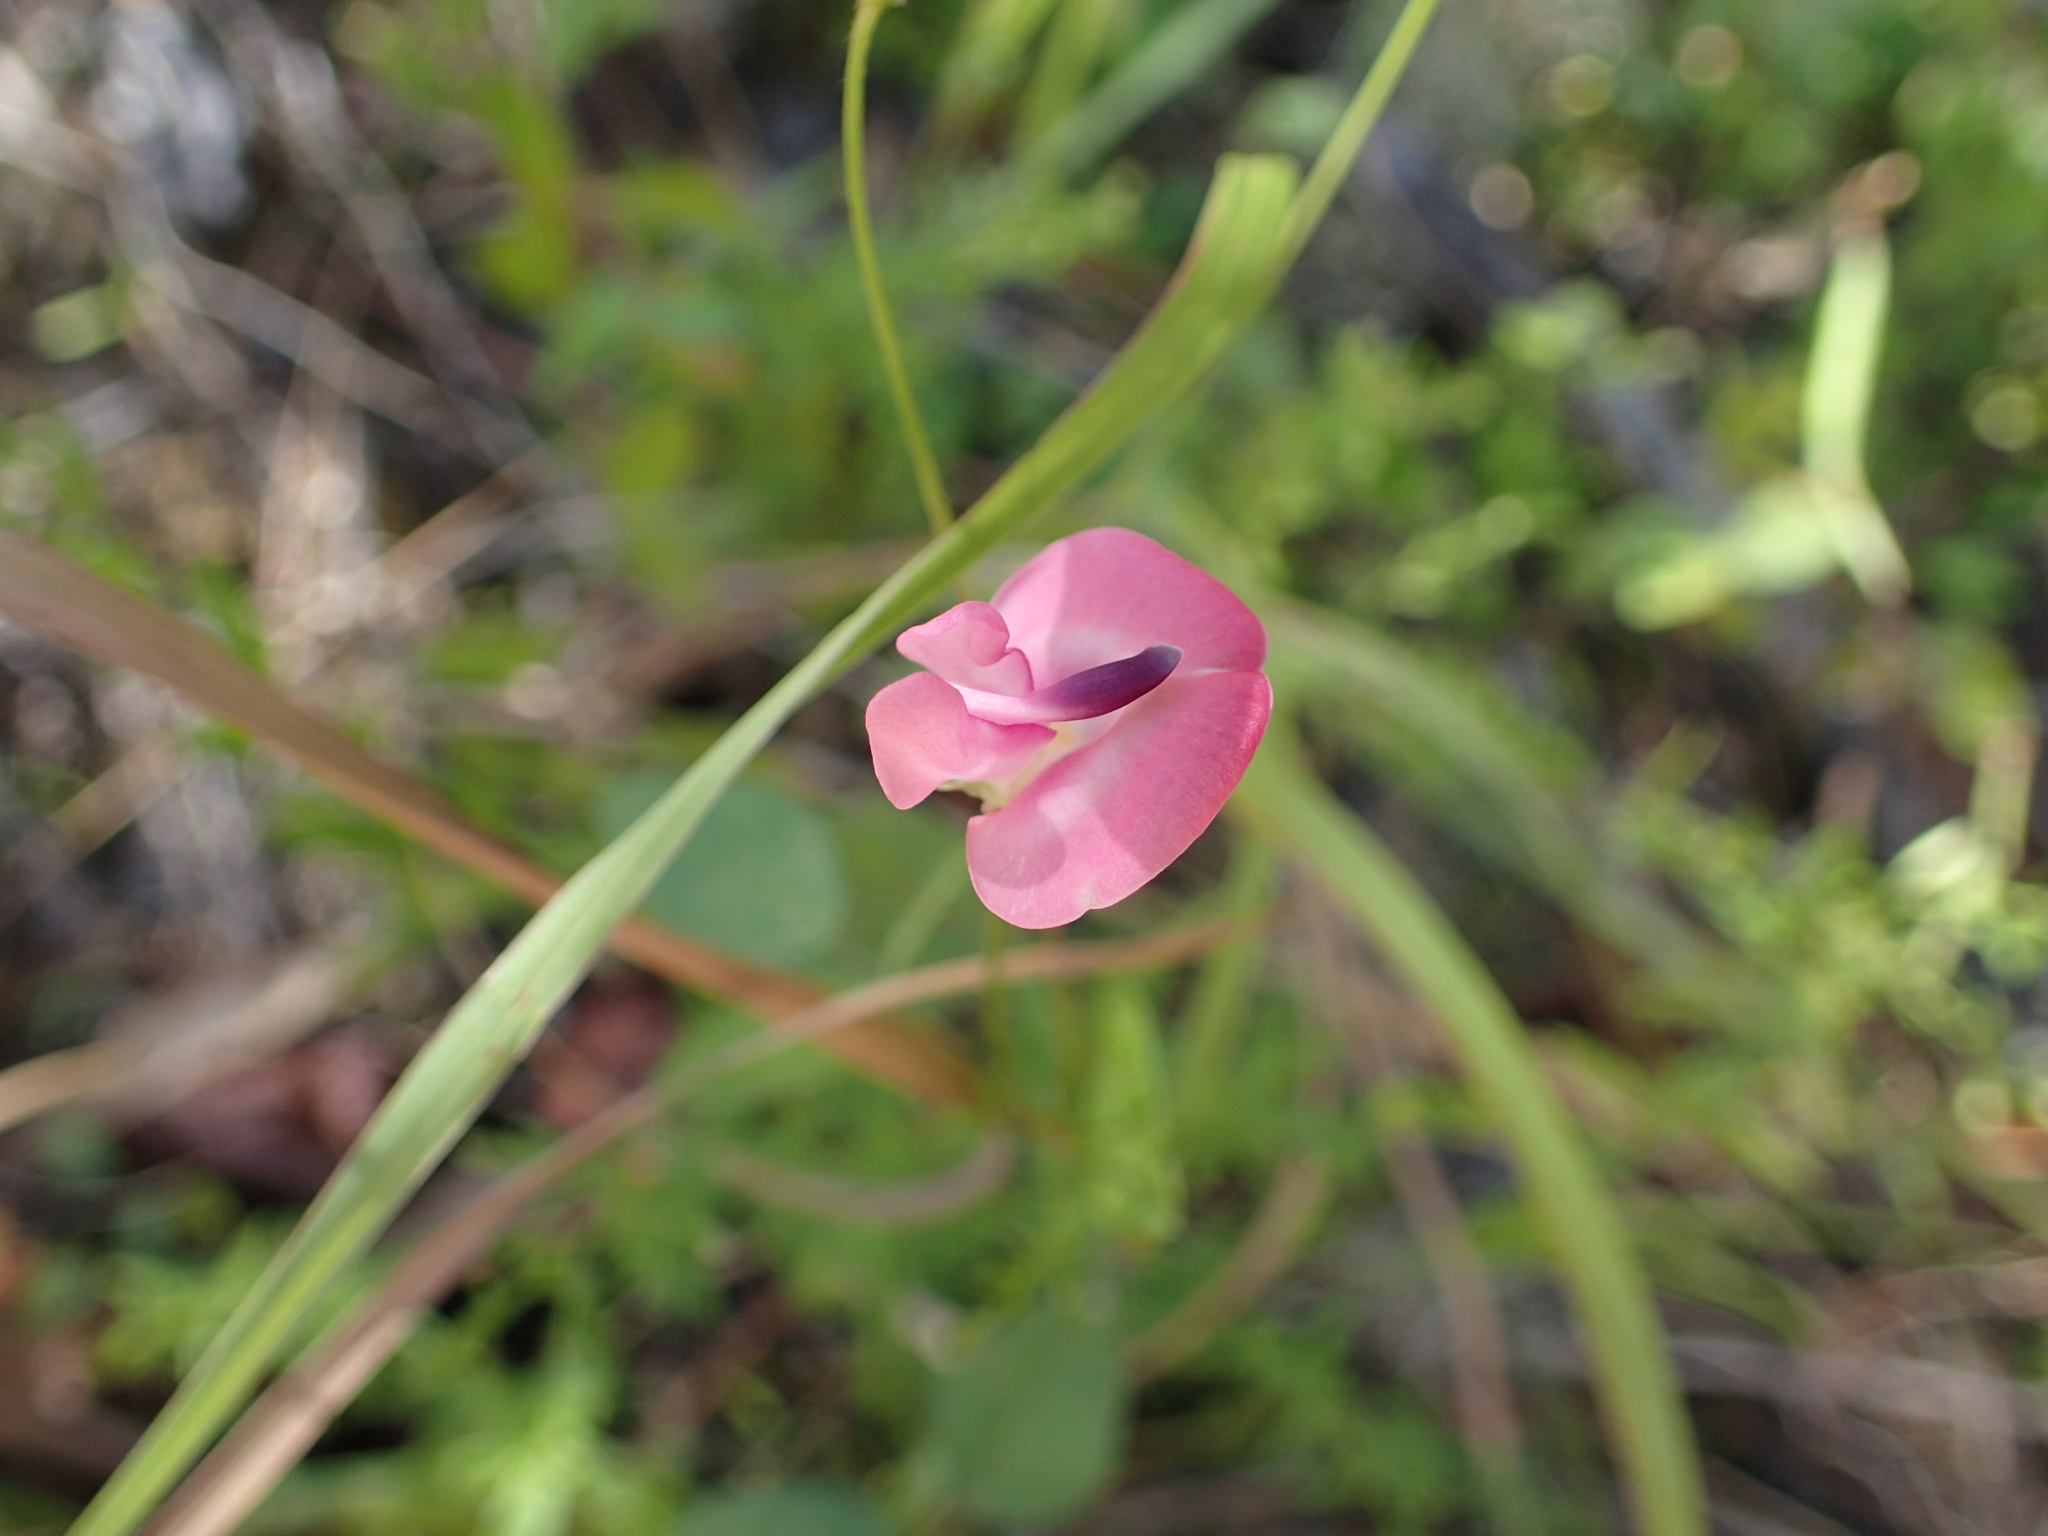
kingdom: Plantae
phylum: Tracheophyta
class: Magnoliopsida
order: Fabales
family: Fabaceae
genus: Strophostyles
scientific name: Strophostyles umbellata
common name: Perennial wild bean
